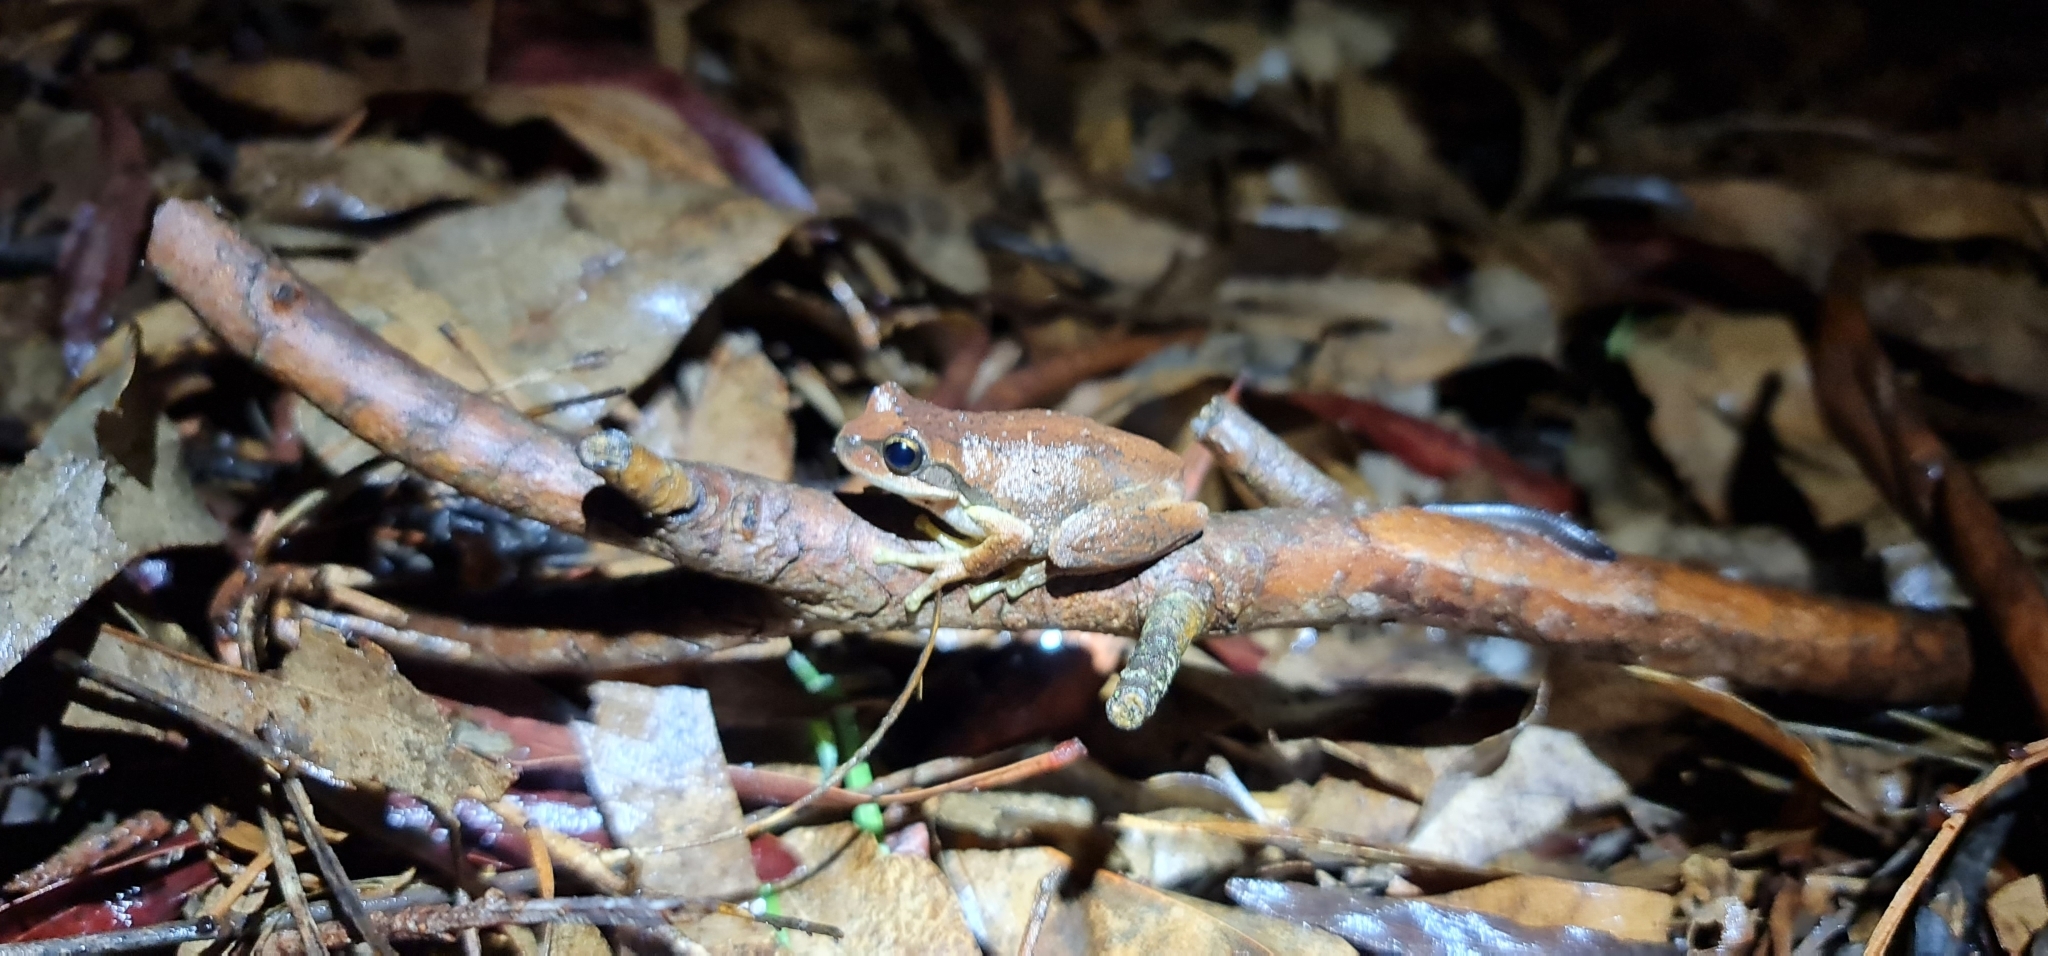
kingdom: Animalia
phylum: Chordata
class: Amphibia
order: Anura
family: Pelodryadidae
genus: Litoria
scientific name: Litoria
